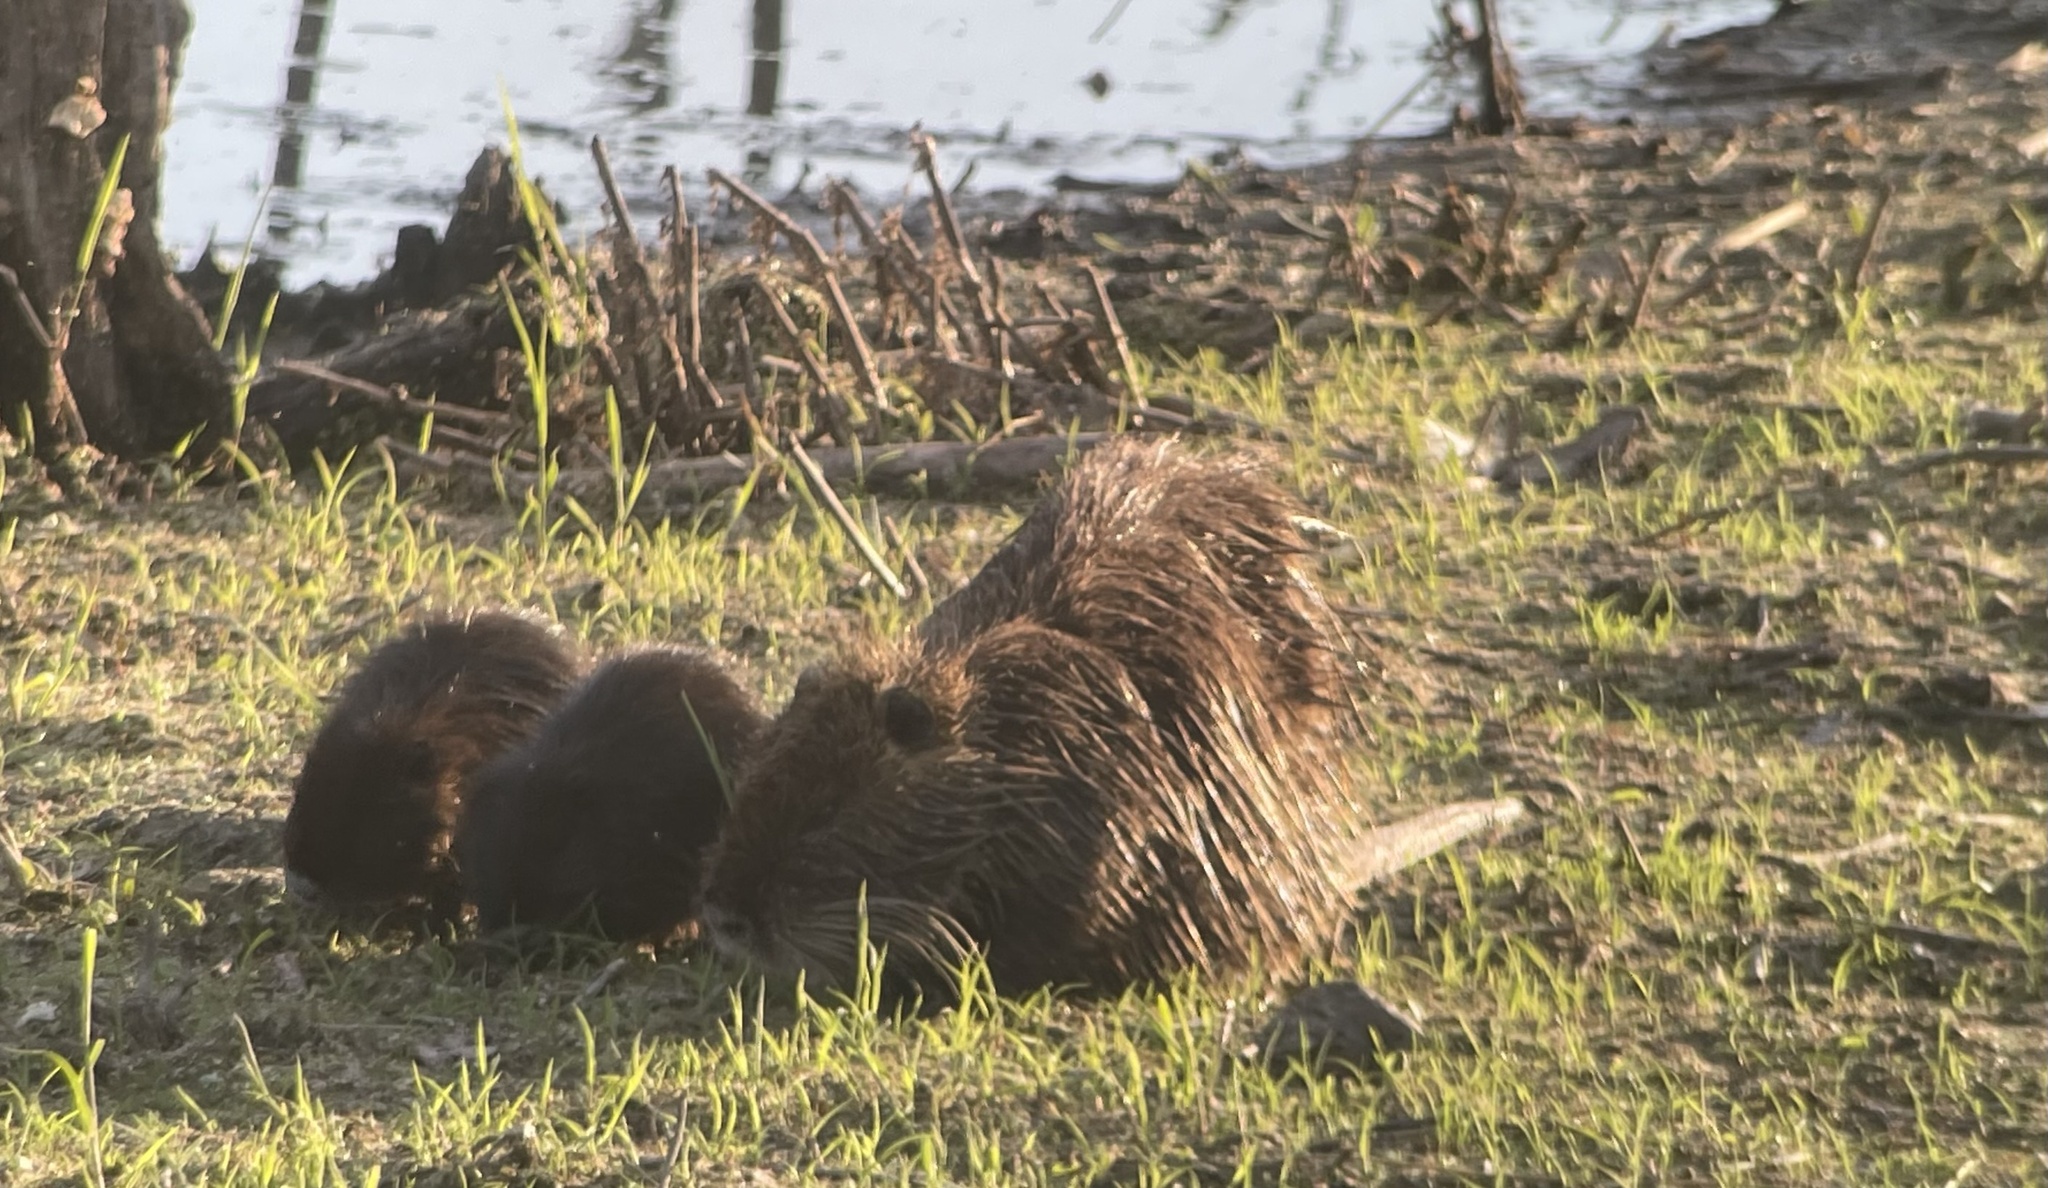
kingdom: Animalia
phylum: Chordata
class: Mammalia
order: Rodentia
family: Myocastoridae
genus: Myocastor
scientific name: Myocastor coypus
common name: Coypu
